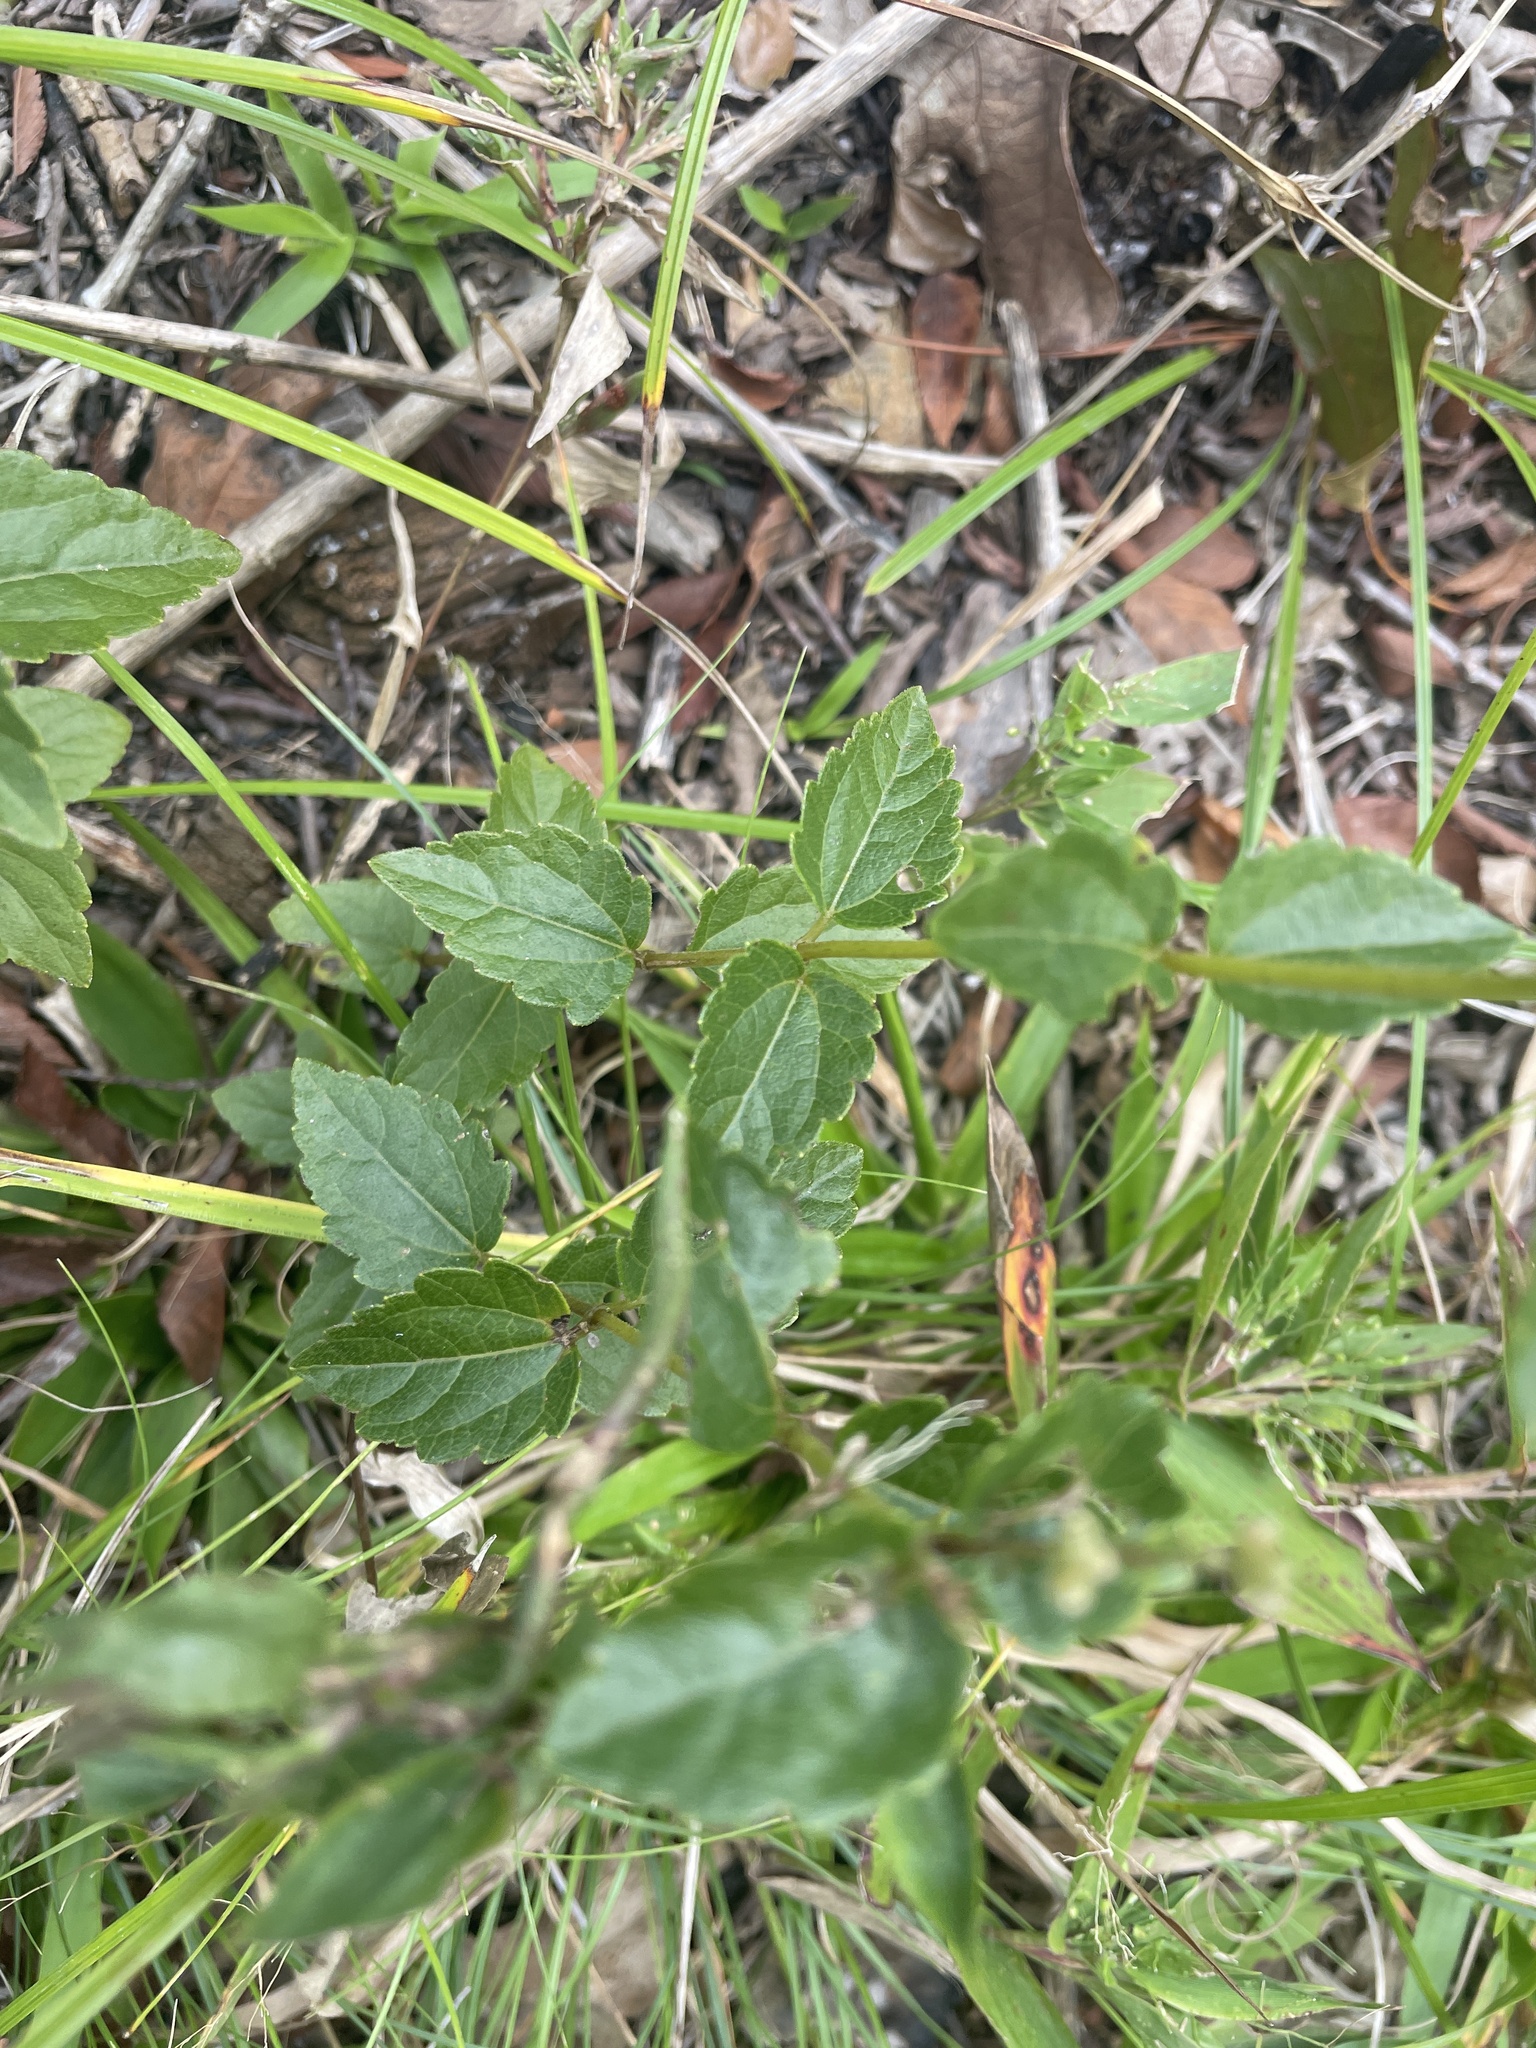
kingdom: Plantae
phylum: Tracheophyta
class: Magnoliopsida
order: Asterales
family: Asteraceae
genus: Ageratina
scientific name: Ageratina aromatica
